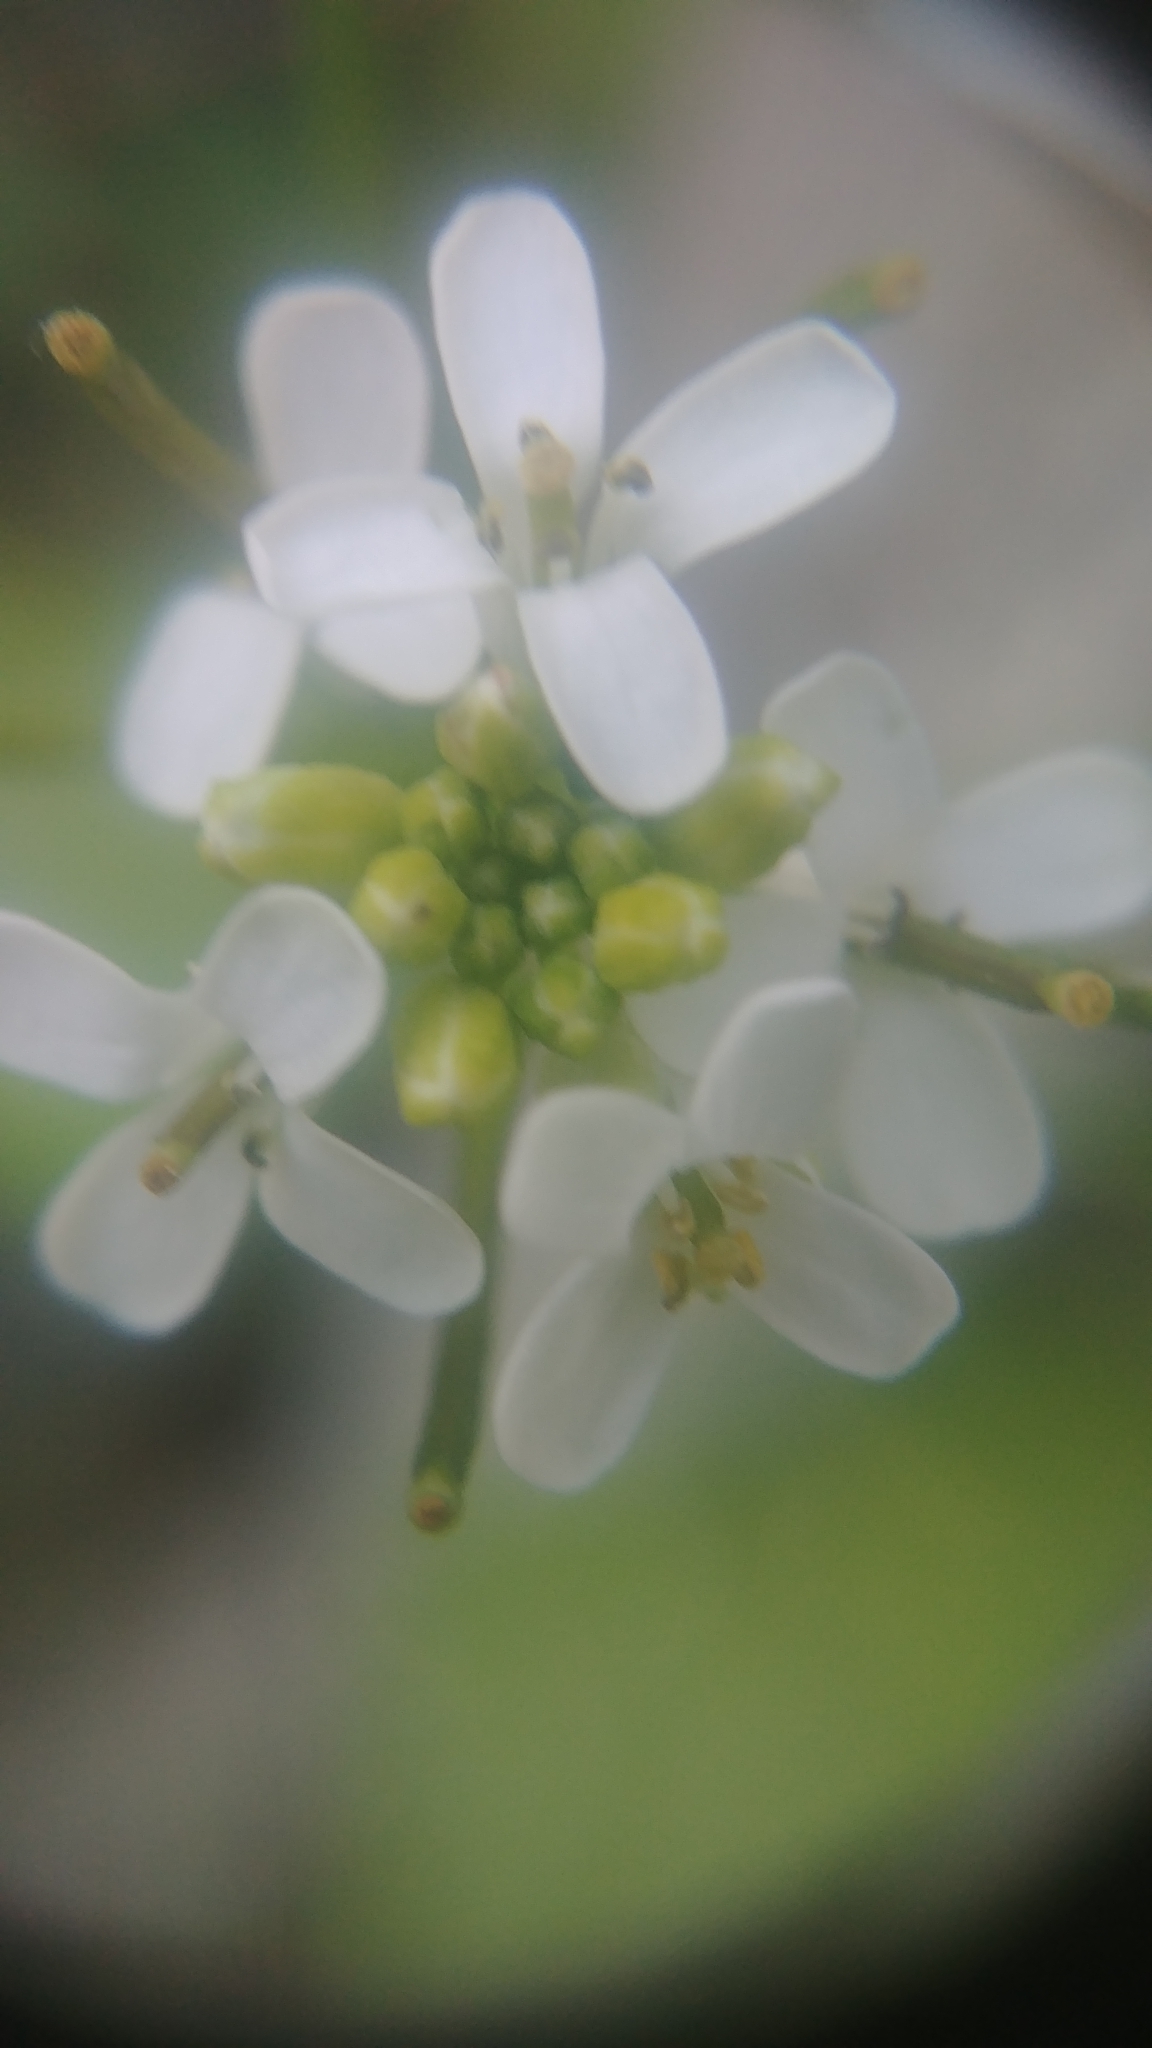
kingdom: Plantae
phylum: Tracheophyta
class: Magnoliopsida
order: Brassicales
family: Brassicaceae
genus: Alliaria
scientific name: Alliaria petiolata
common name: Garlic mustard
